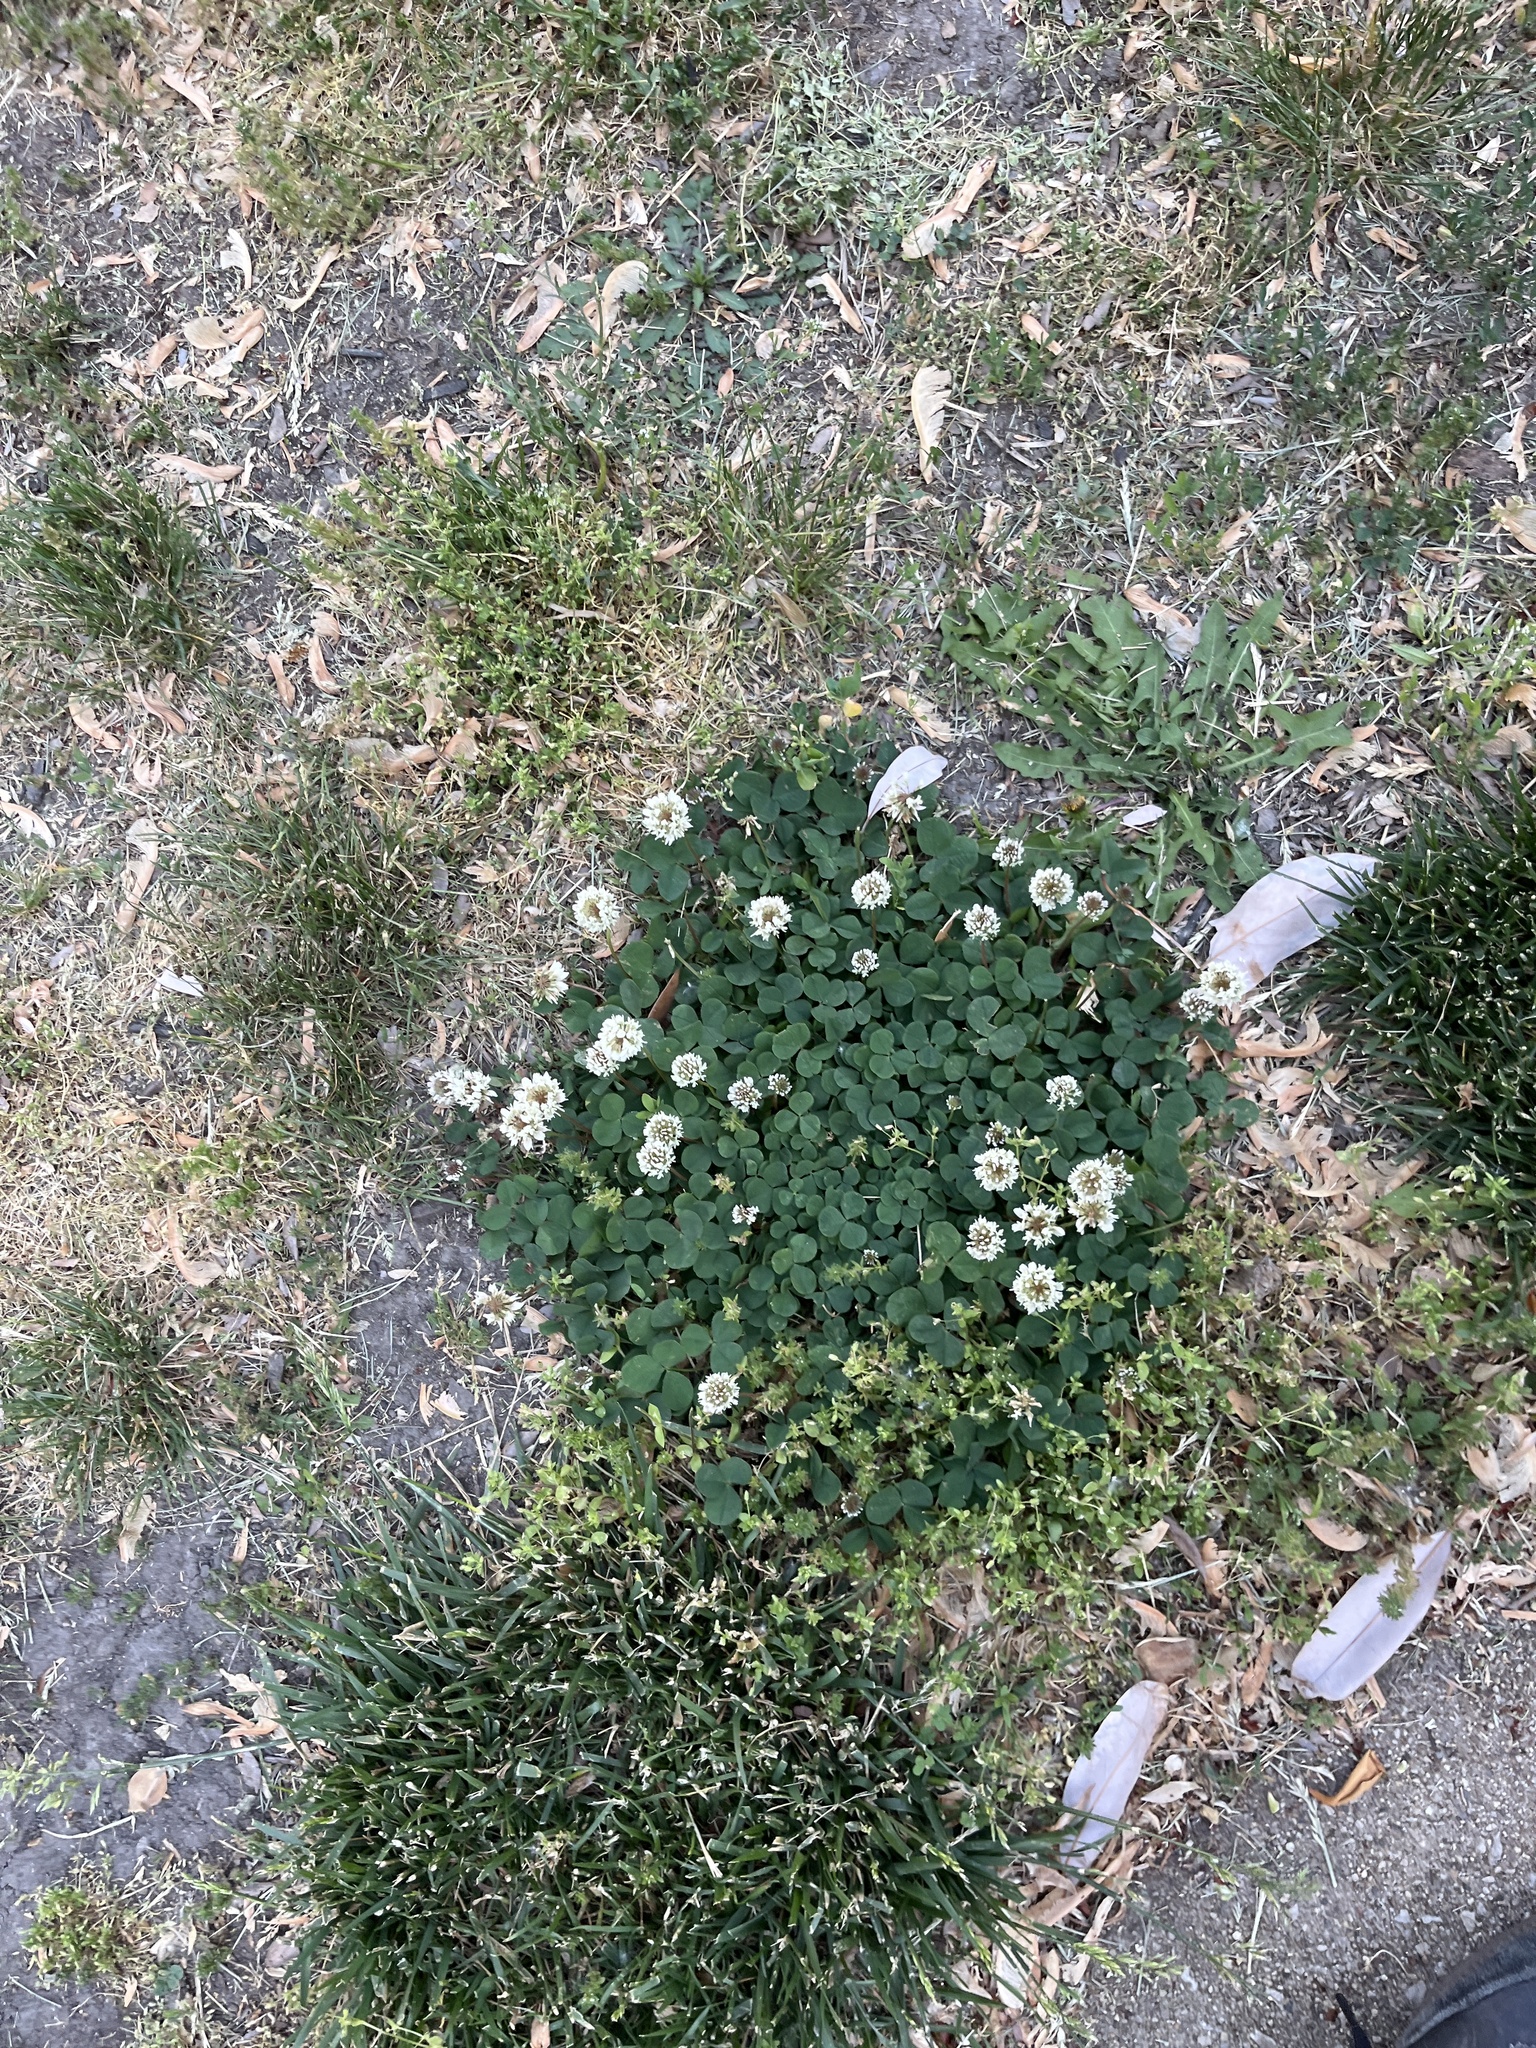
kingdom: Plantae
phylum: Tracheophyta
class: Magnoliopsida
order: Fabales
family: Fabaceae
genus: Trifolium
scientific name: Trifolium repens
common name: White clover
